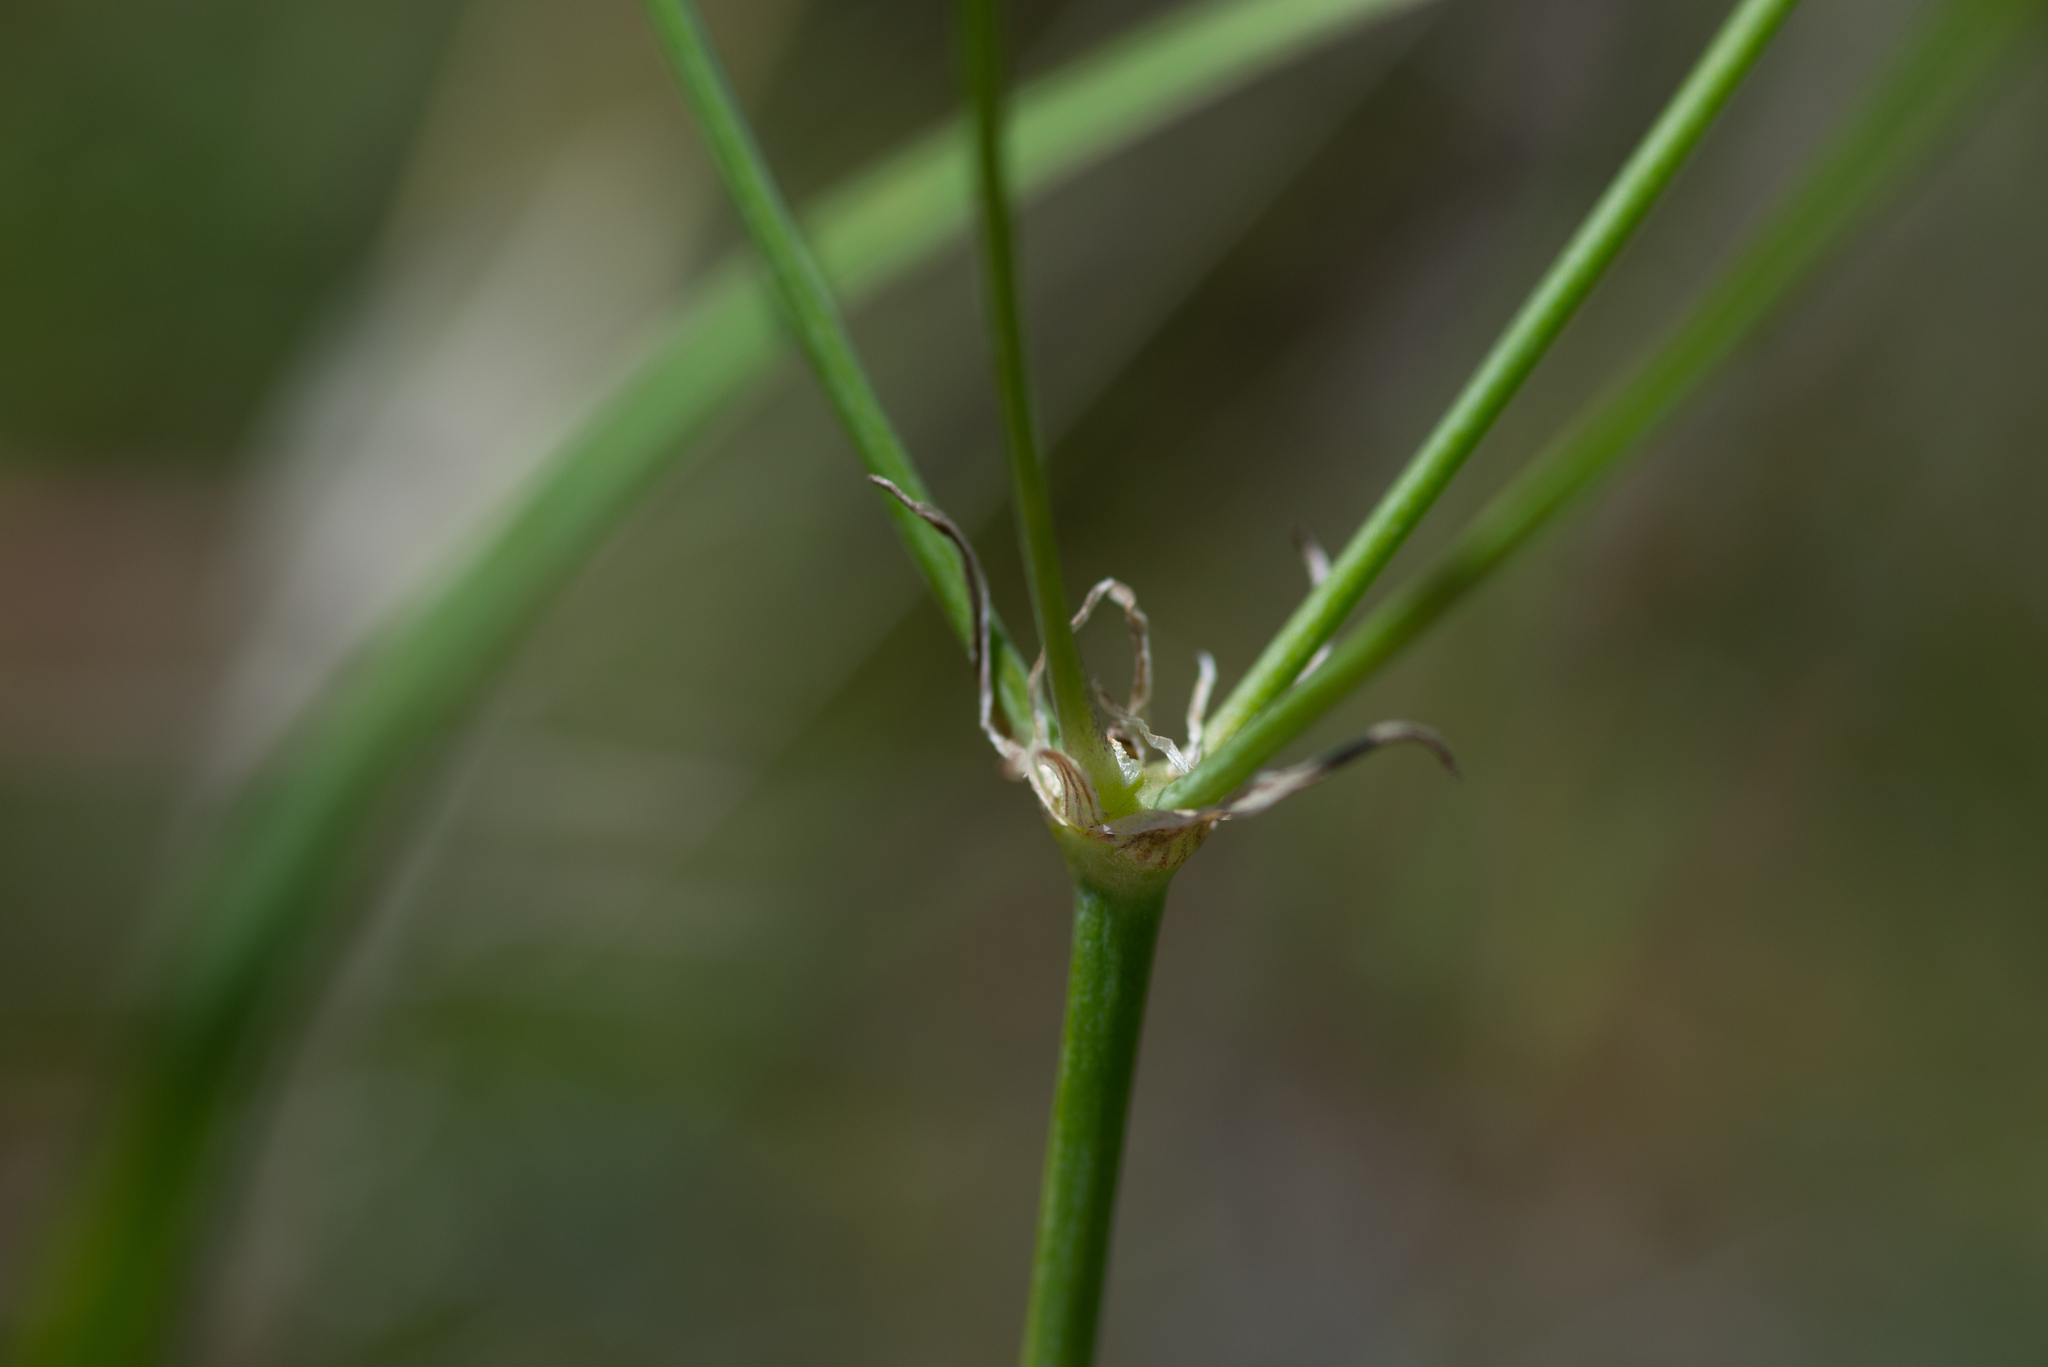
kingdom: Plantae
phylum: Tracheophyta
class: Liliopsida
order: Asparagales
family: Asparagaceae
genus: Milla
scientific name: Milla biflora
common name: Mexican-star
